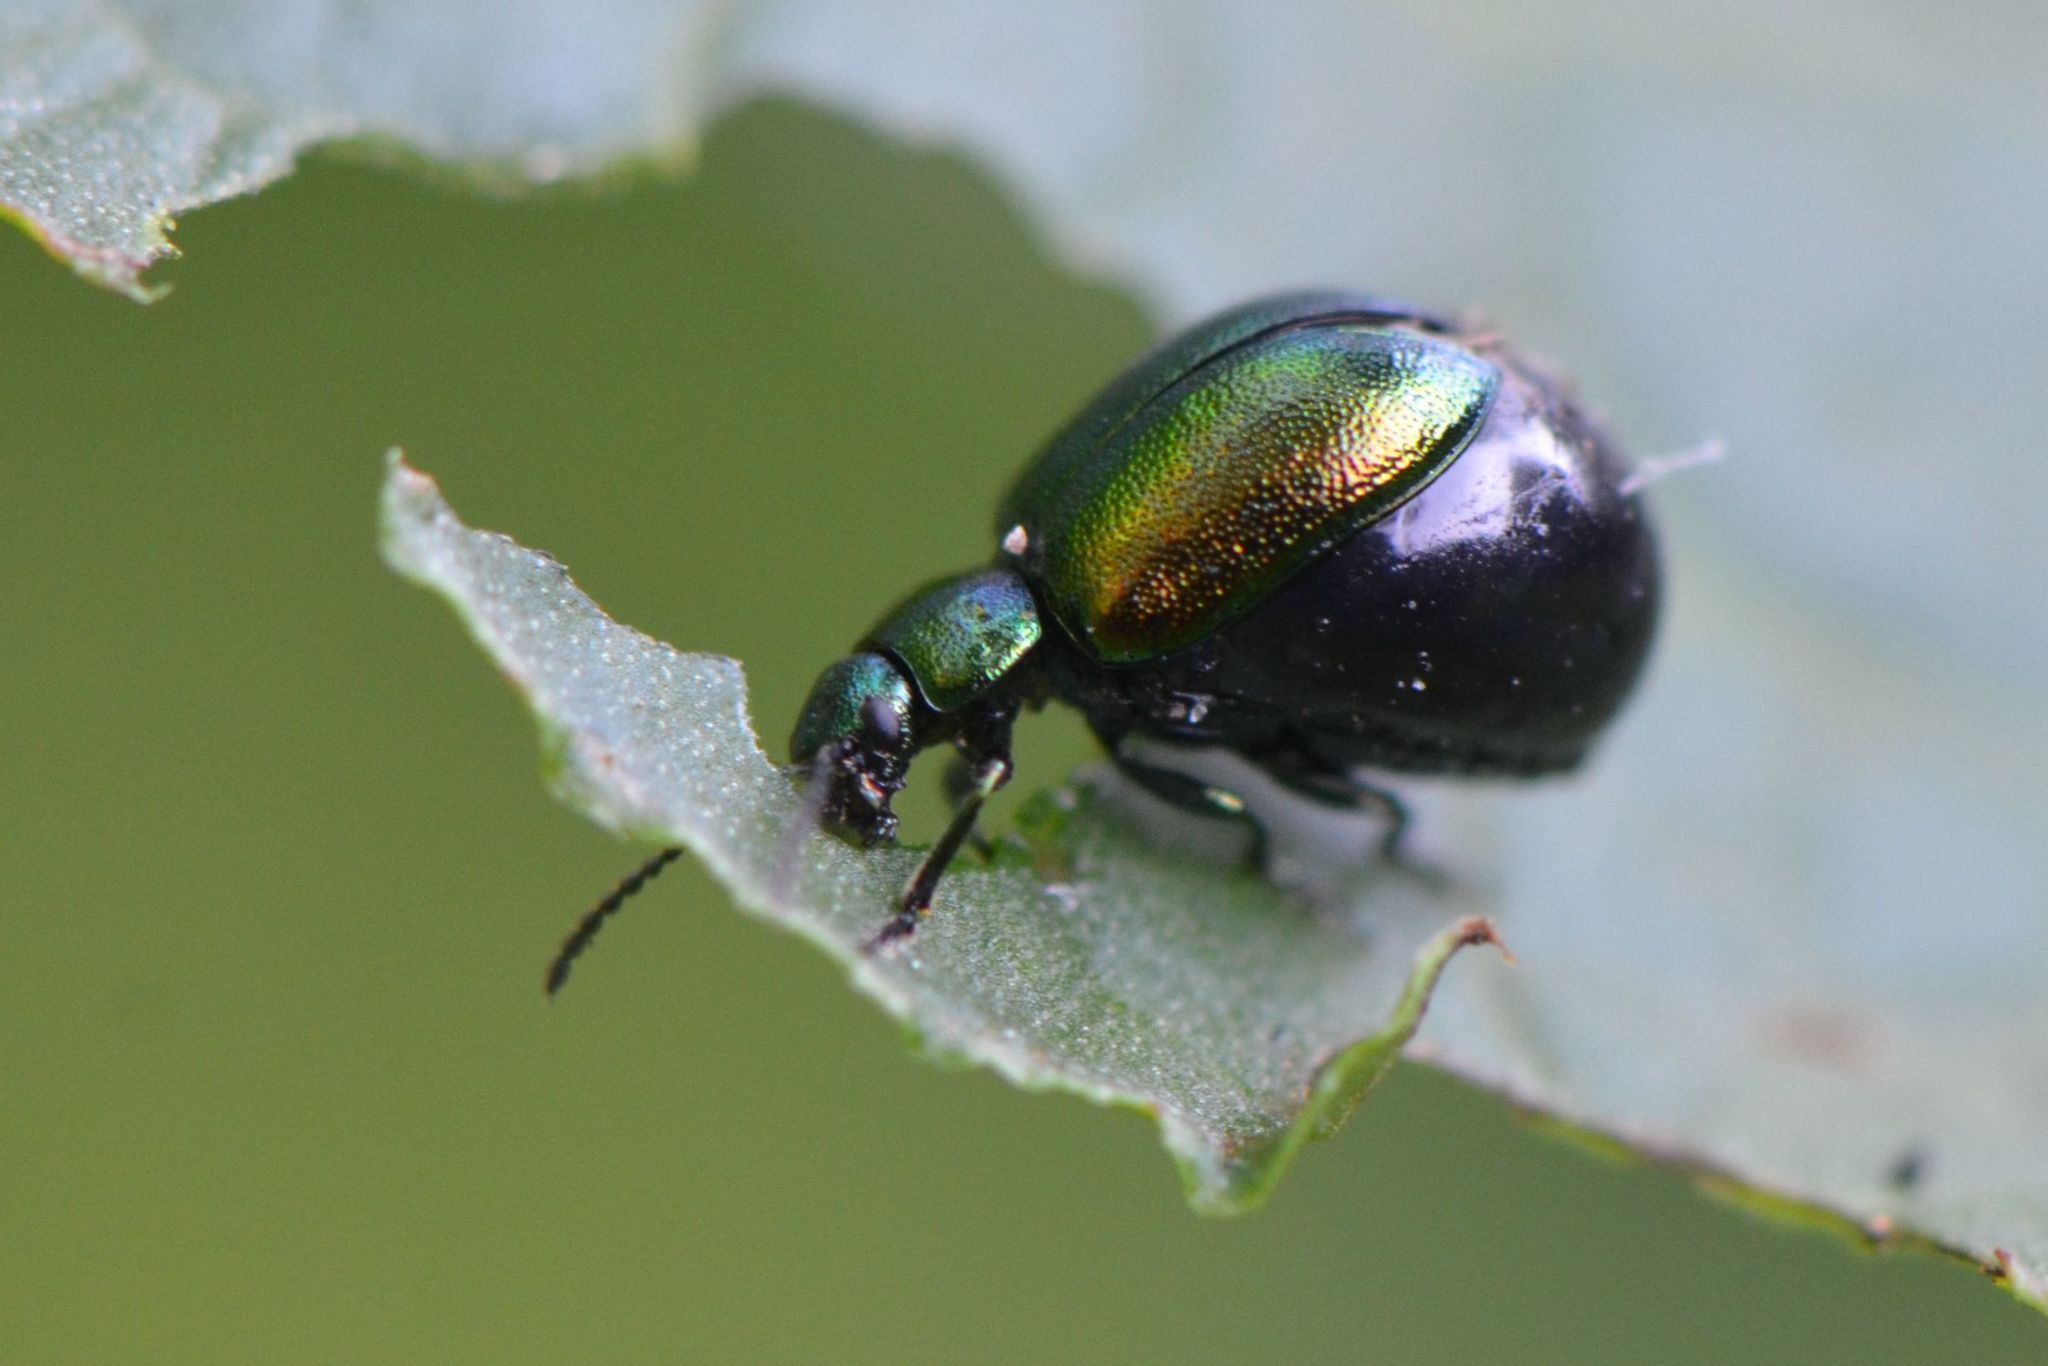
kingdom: Animalia
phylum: Arthropoda
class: Insecta
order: Coleoptera
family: Chrysomelidae
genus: Gastrophysa
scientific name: Gastrophysa viridula
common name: Green dock beetle
